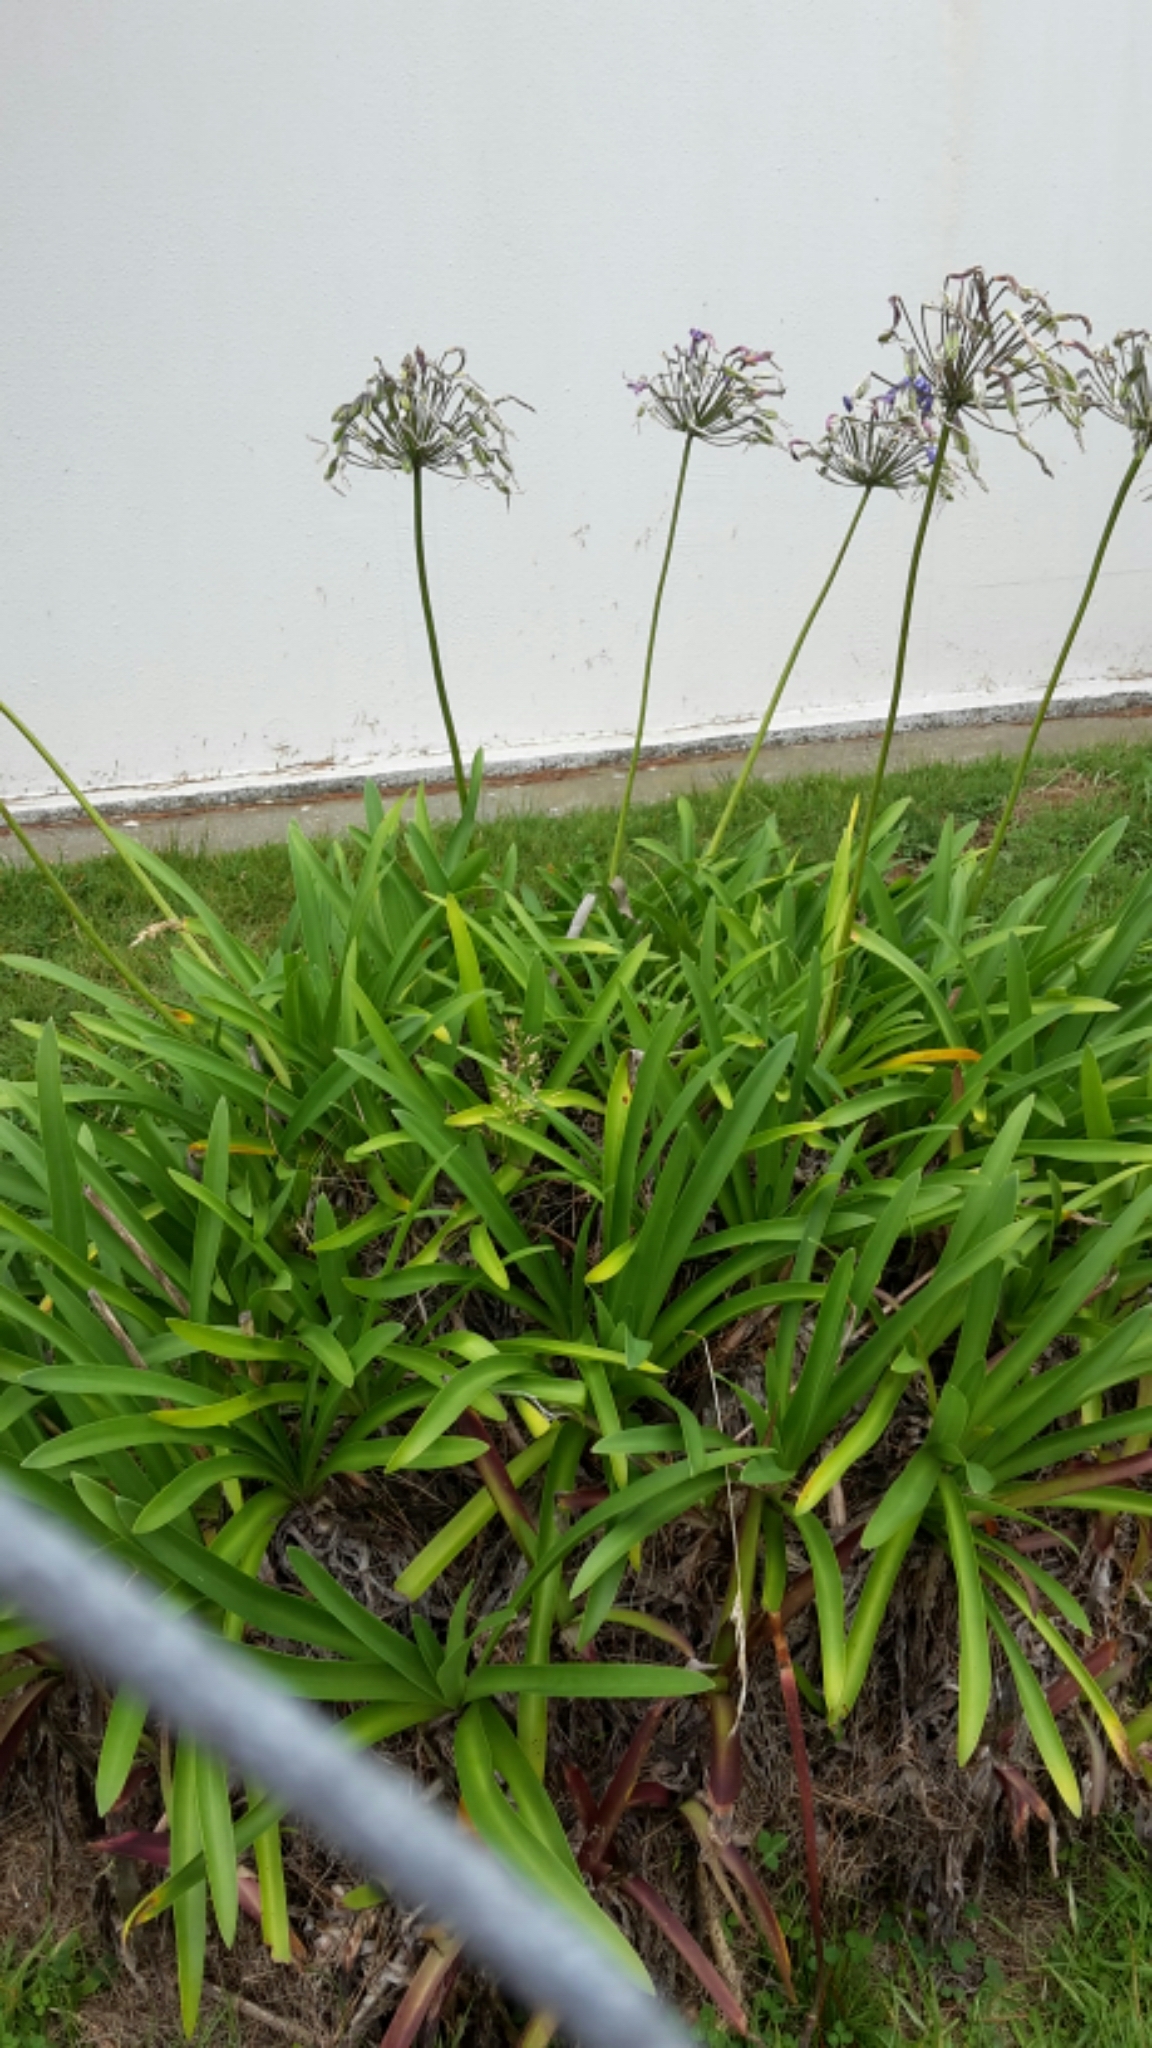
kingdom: Plantae
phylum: Tracheophyta
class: Liliopsida
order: Asparagales
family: Amaryllidaceae
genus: Agapanthus
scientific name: Agapanthus praecox
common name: African-lily
